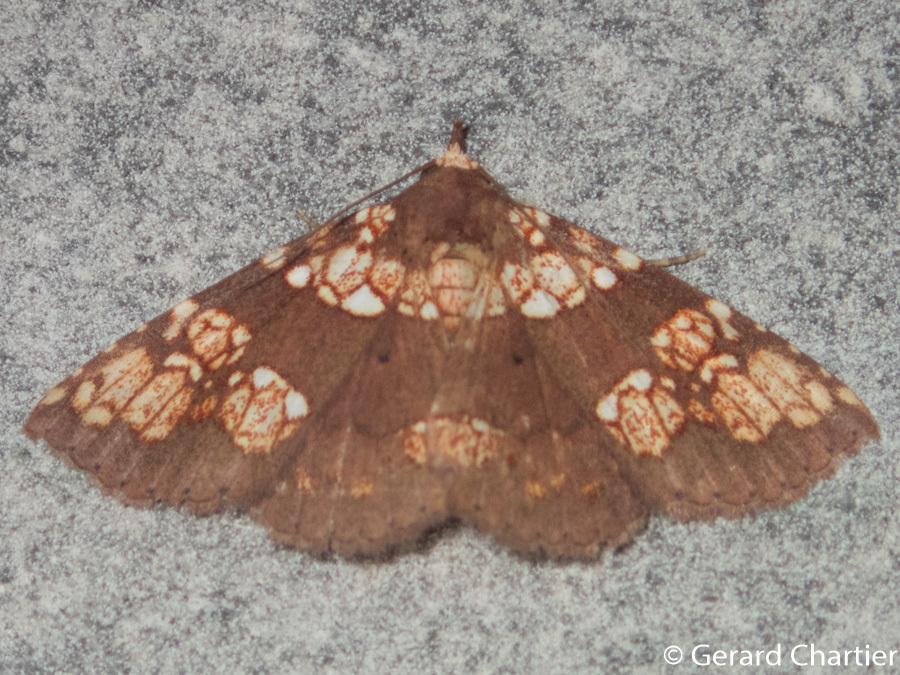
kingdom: Animalia
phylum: Arthropoda
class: Insecta
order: Lepidoptera
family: Erebidae
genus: Saroba
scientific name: Saroba pustulifera
